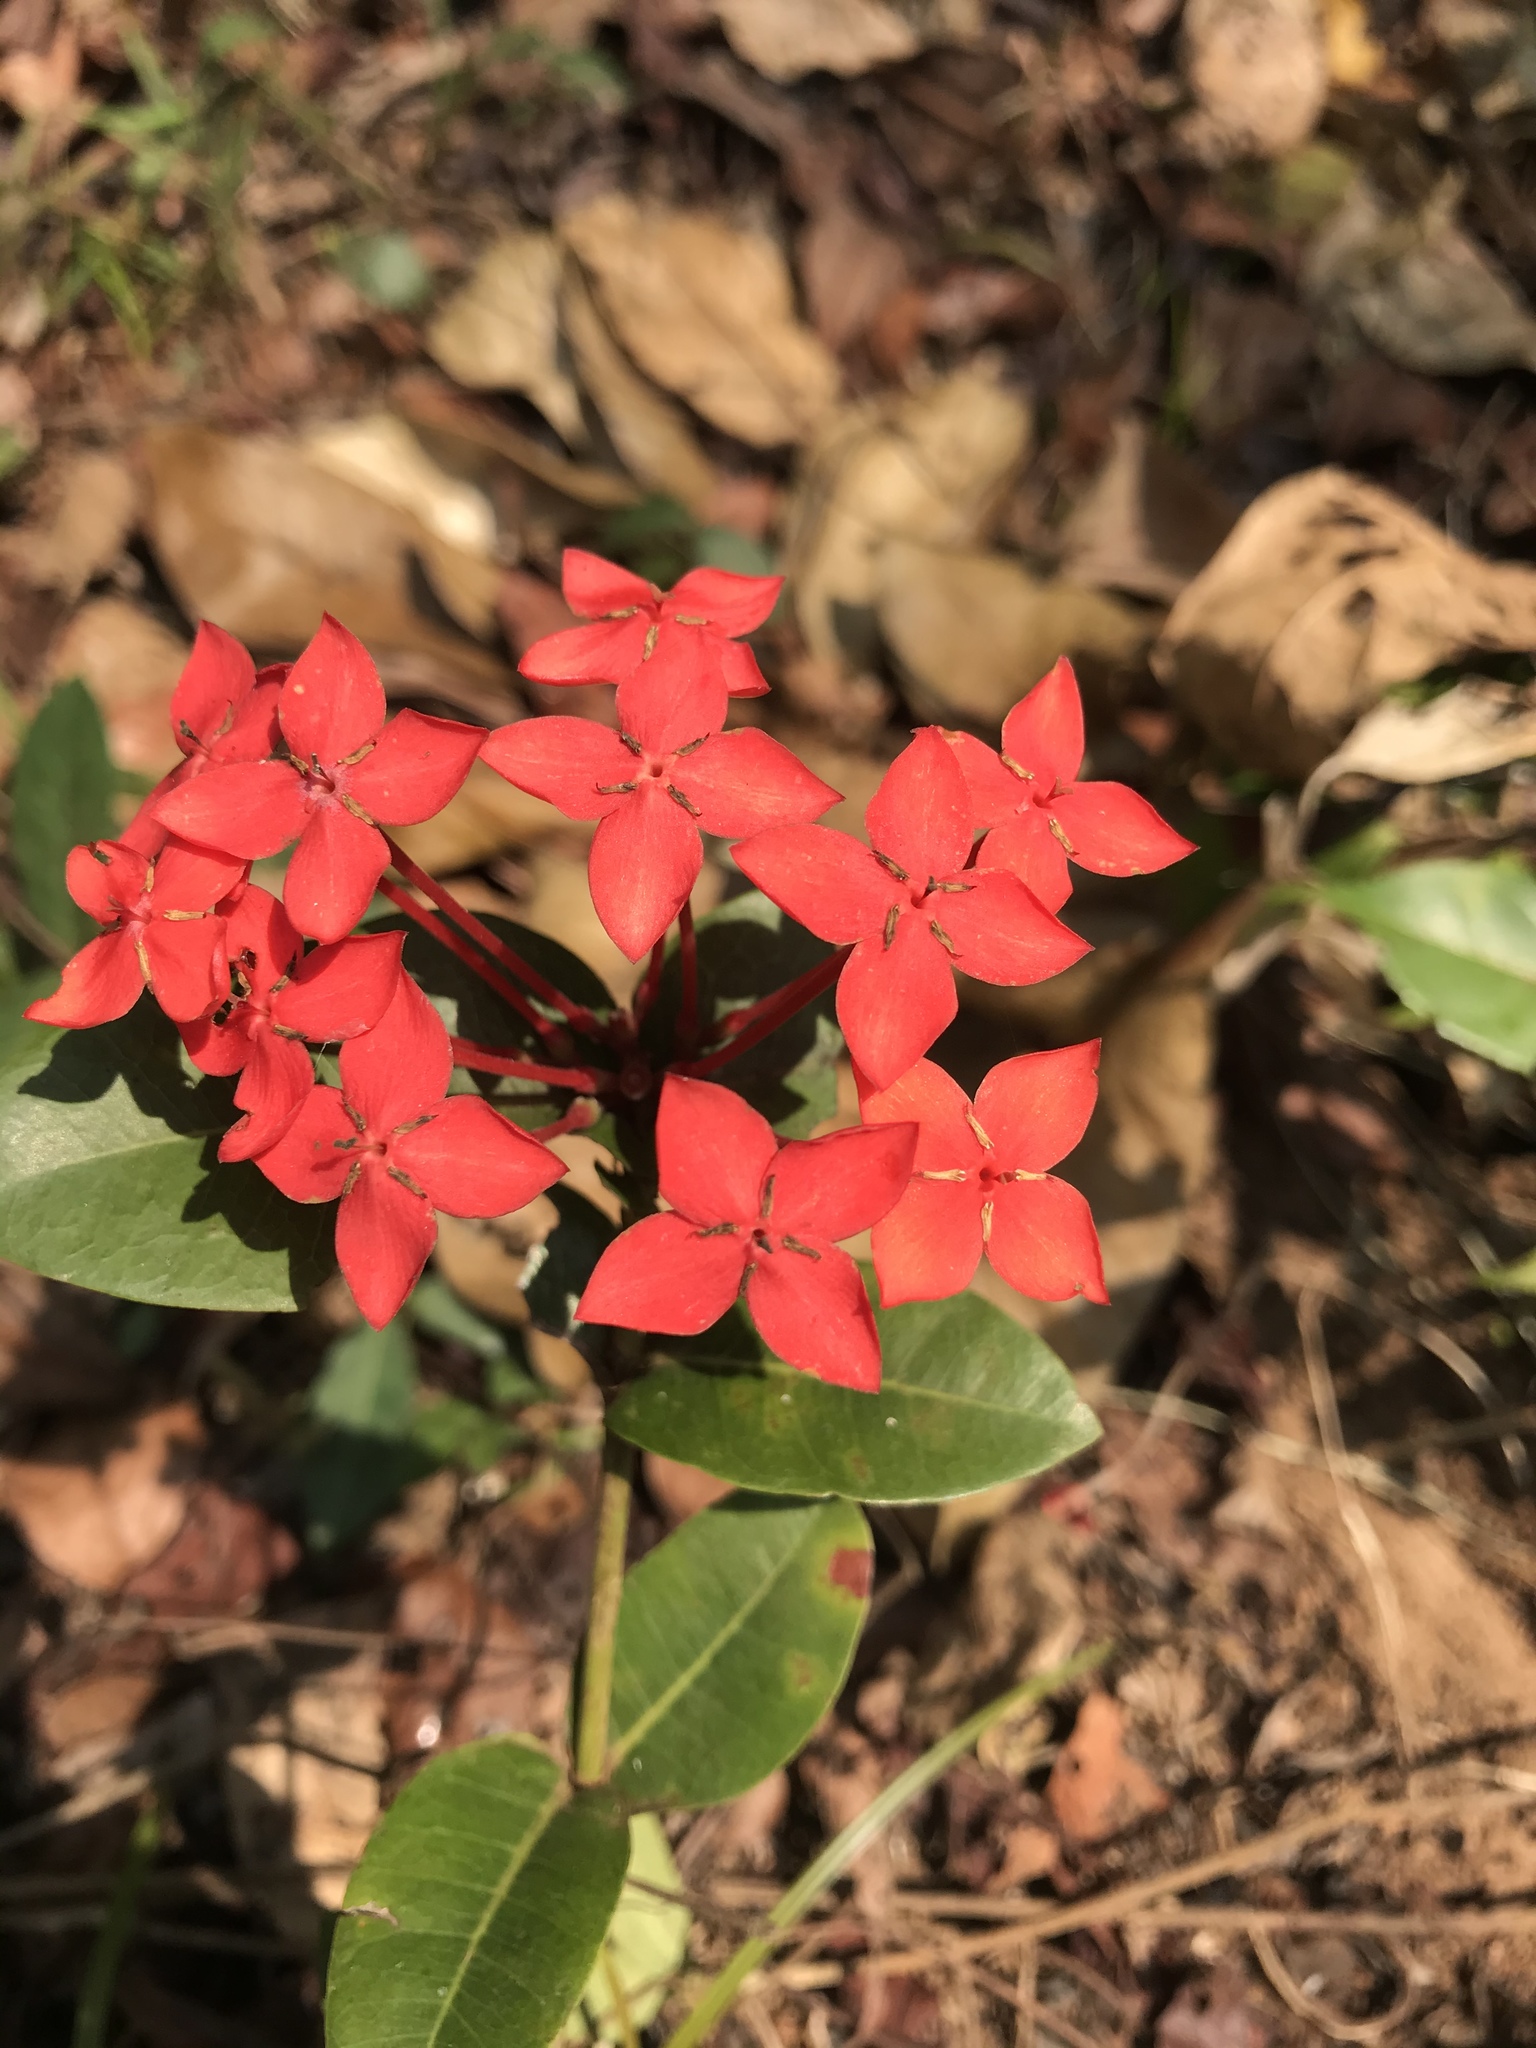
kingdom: Plantae
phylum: Tracheophyta
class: Magnoliopsida
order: Gentianales
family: Rubiaceae
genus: Ixora
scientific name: Ixora coccinea
